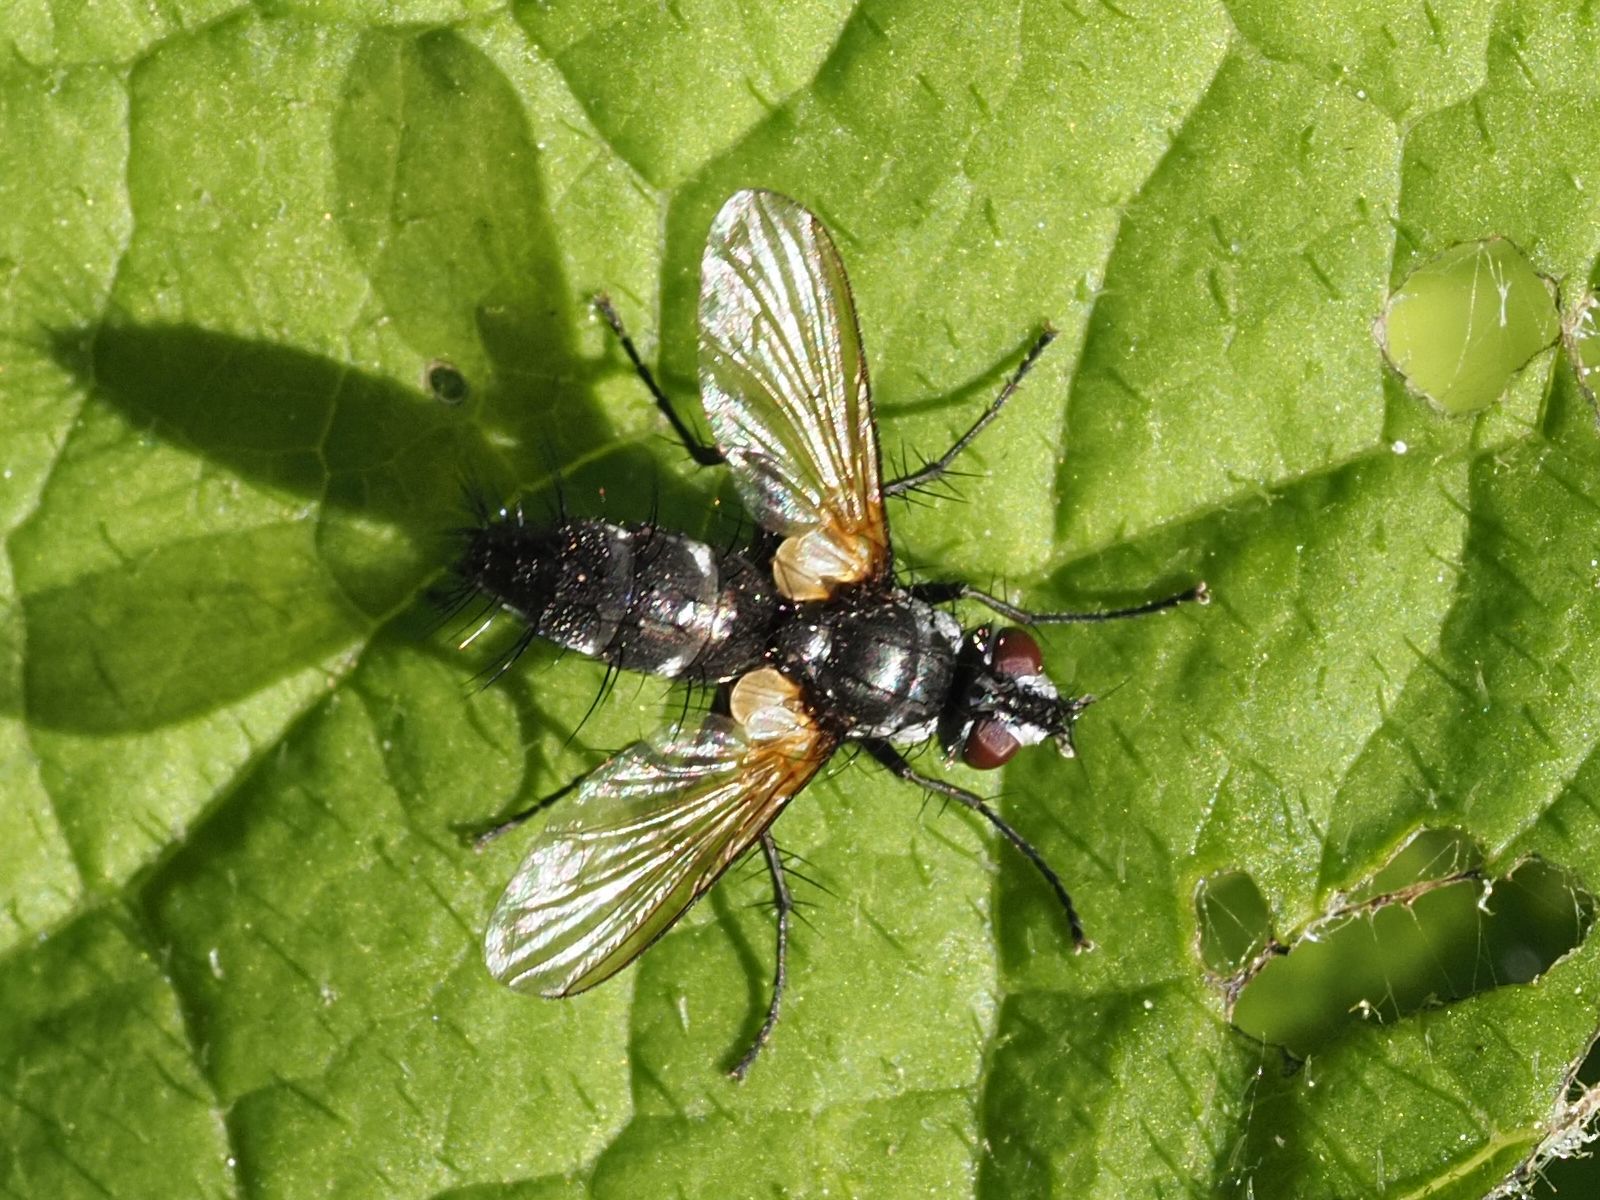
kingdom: Animalia
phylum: Arthropoda
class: Insecta
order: Diptera
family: Tachinidae
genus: Phyllomya
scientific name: Phyllomya volvulus
